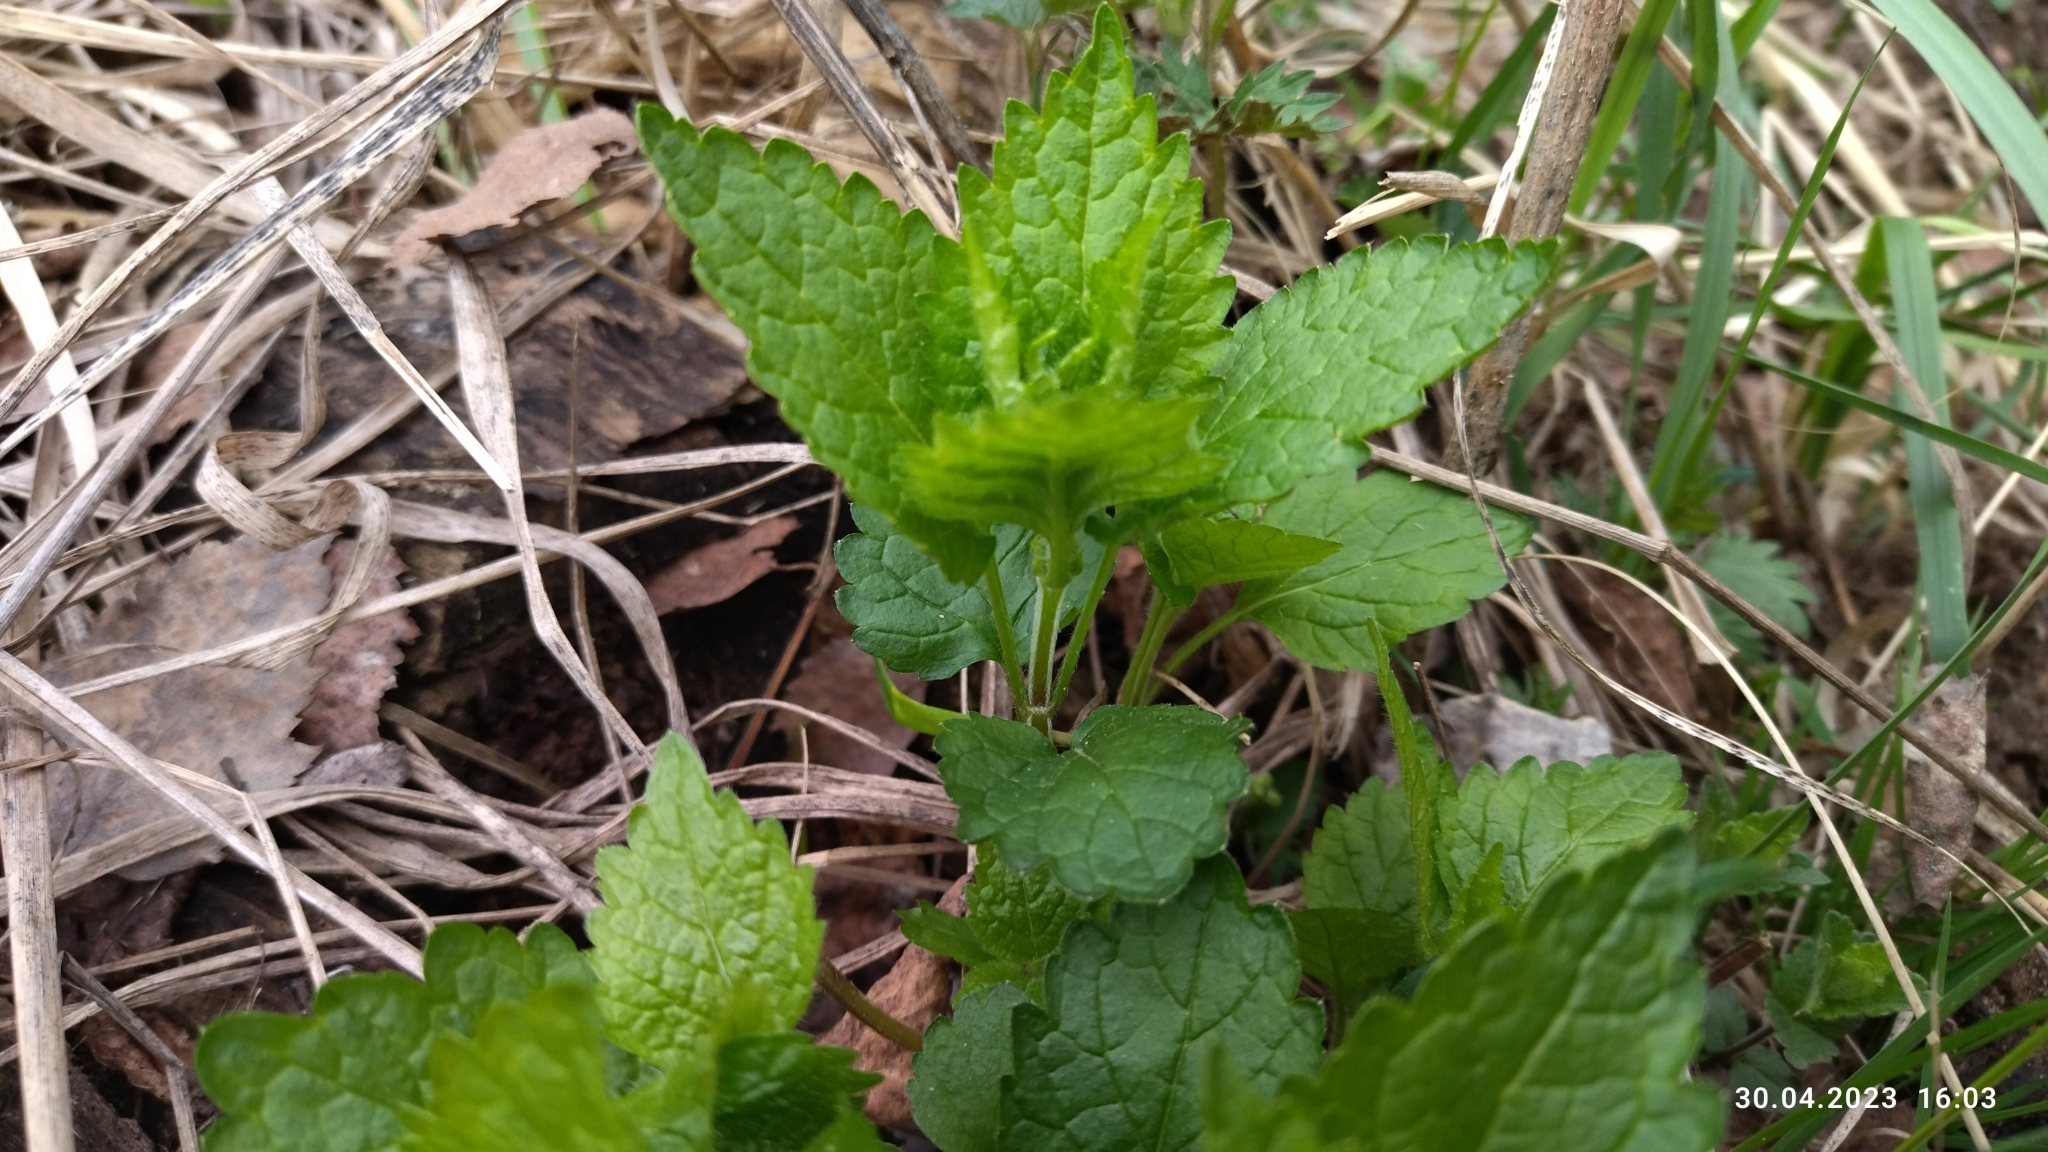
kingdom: Plantae
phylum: Tracheophyta
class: Magnoliopsida
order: Lamiales
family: Lamiaceae
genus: Lamium
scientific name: Lamium galeobdolon
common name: Yellow archangel
